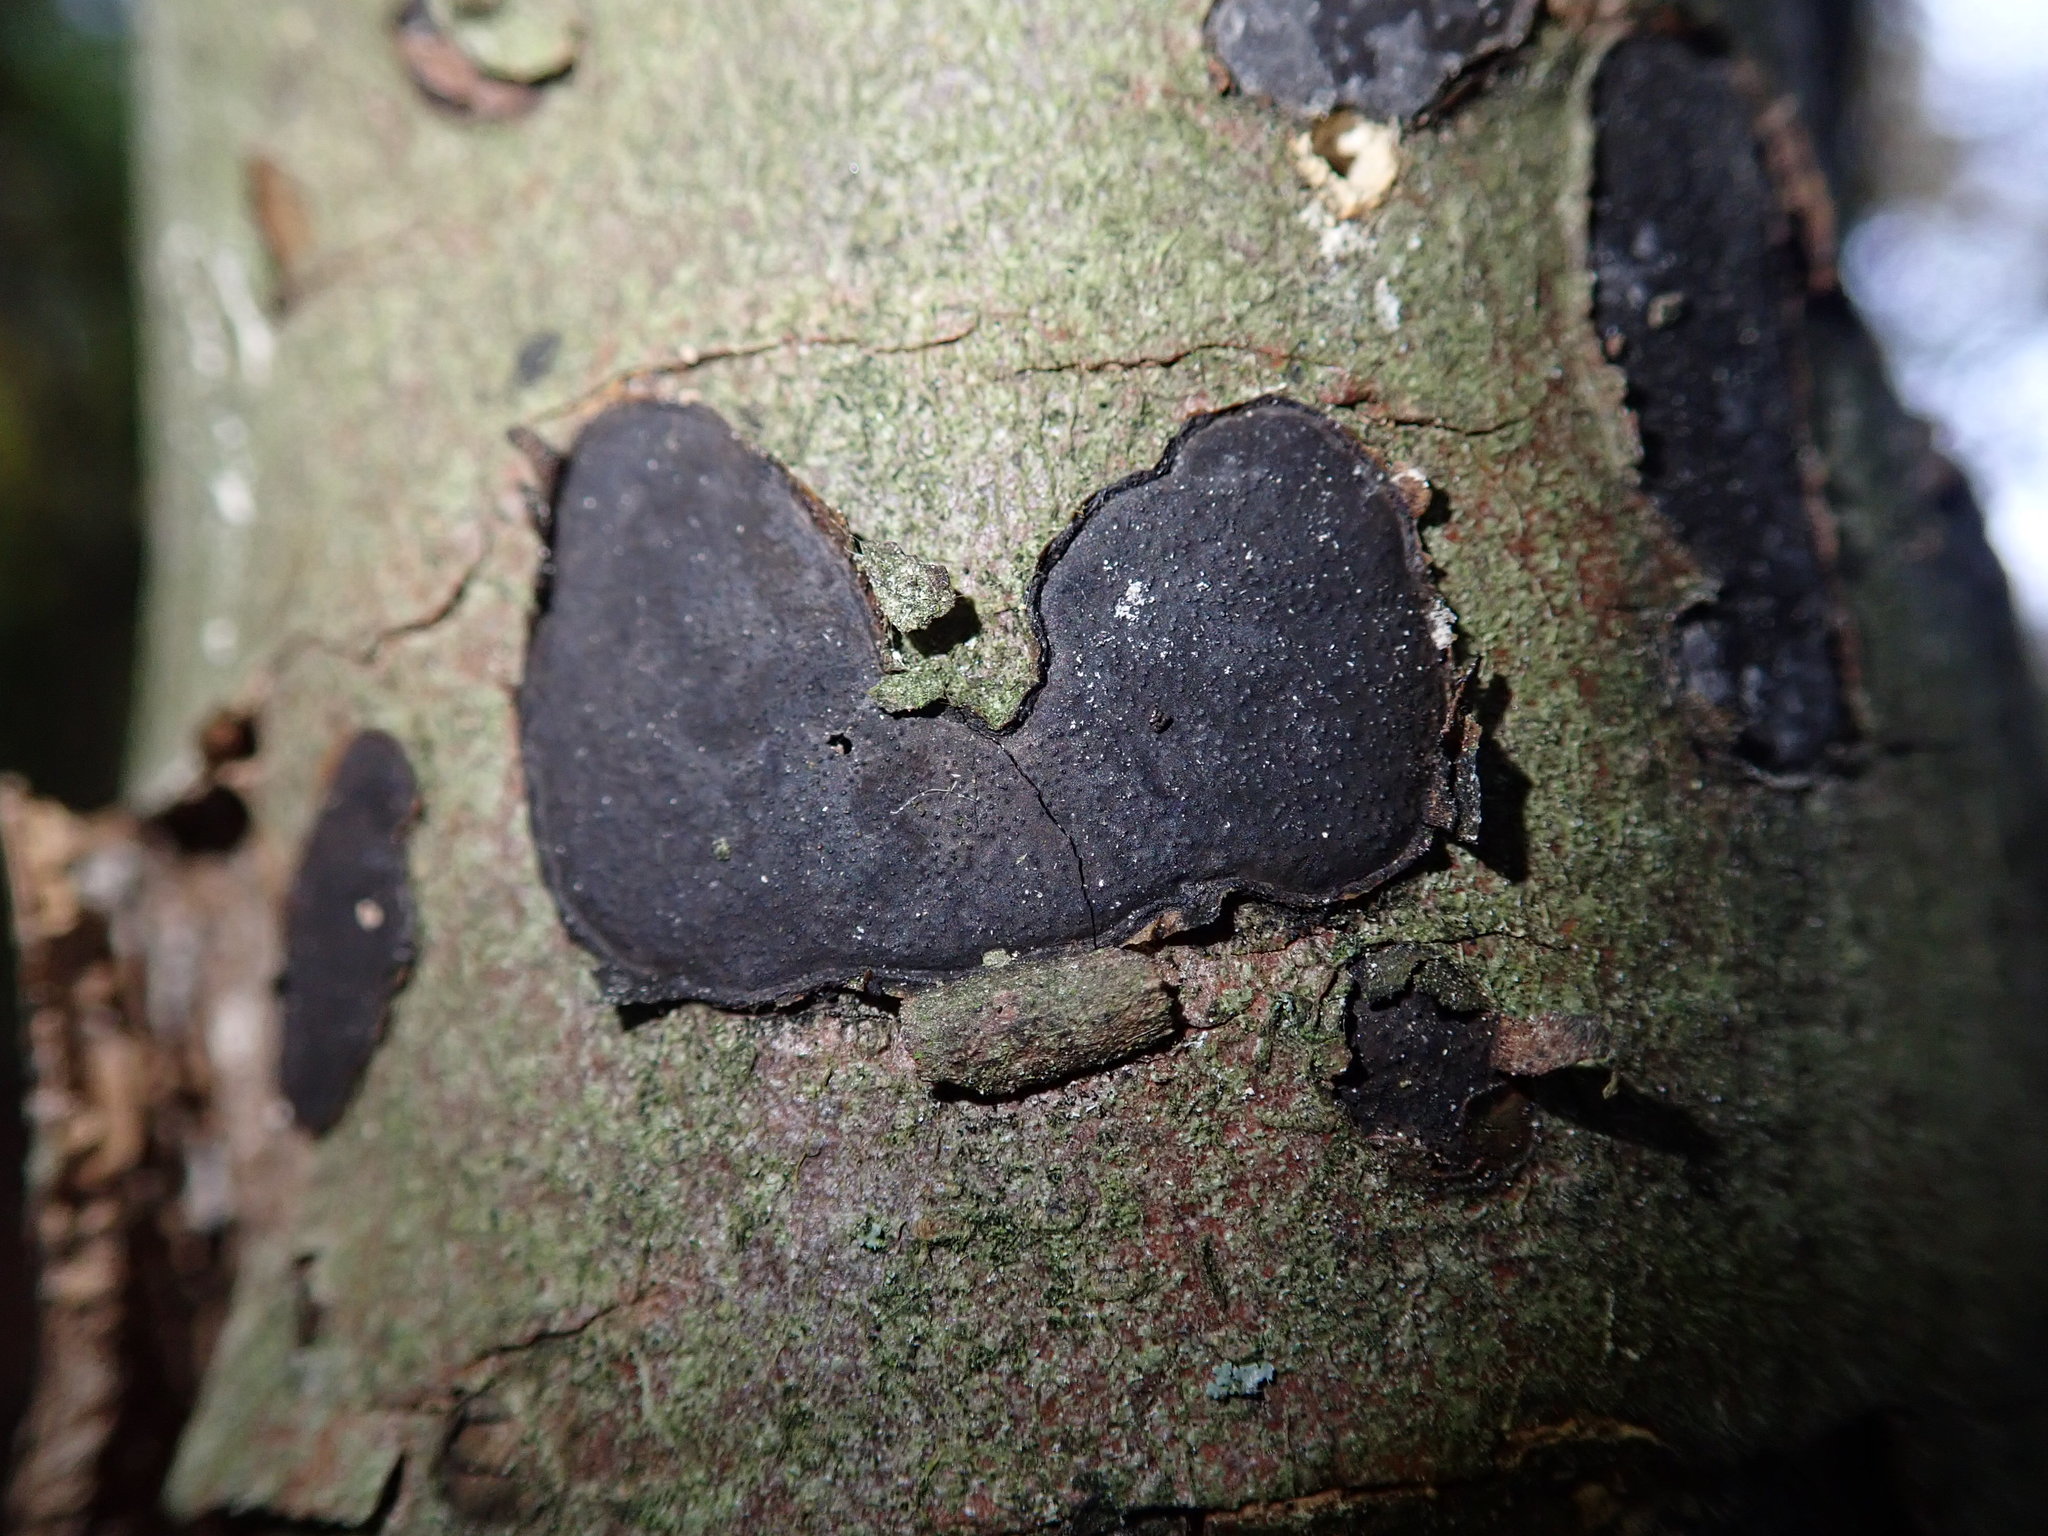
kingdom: Fungi
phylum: Ascomycota
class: Sordariomycetes
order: Xylariales
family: Graphostromataceae
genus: Biscogniauxia
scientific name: Biscogniauxia nummularia
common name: Beech tarcrust
